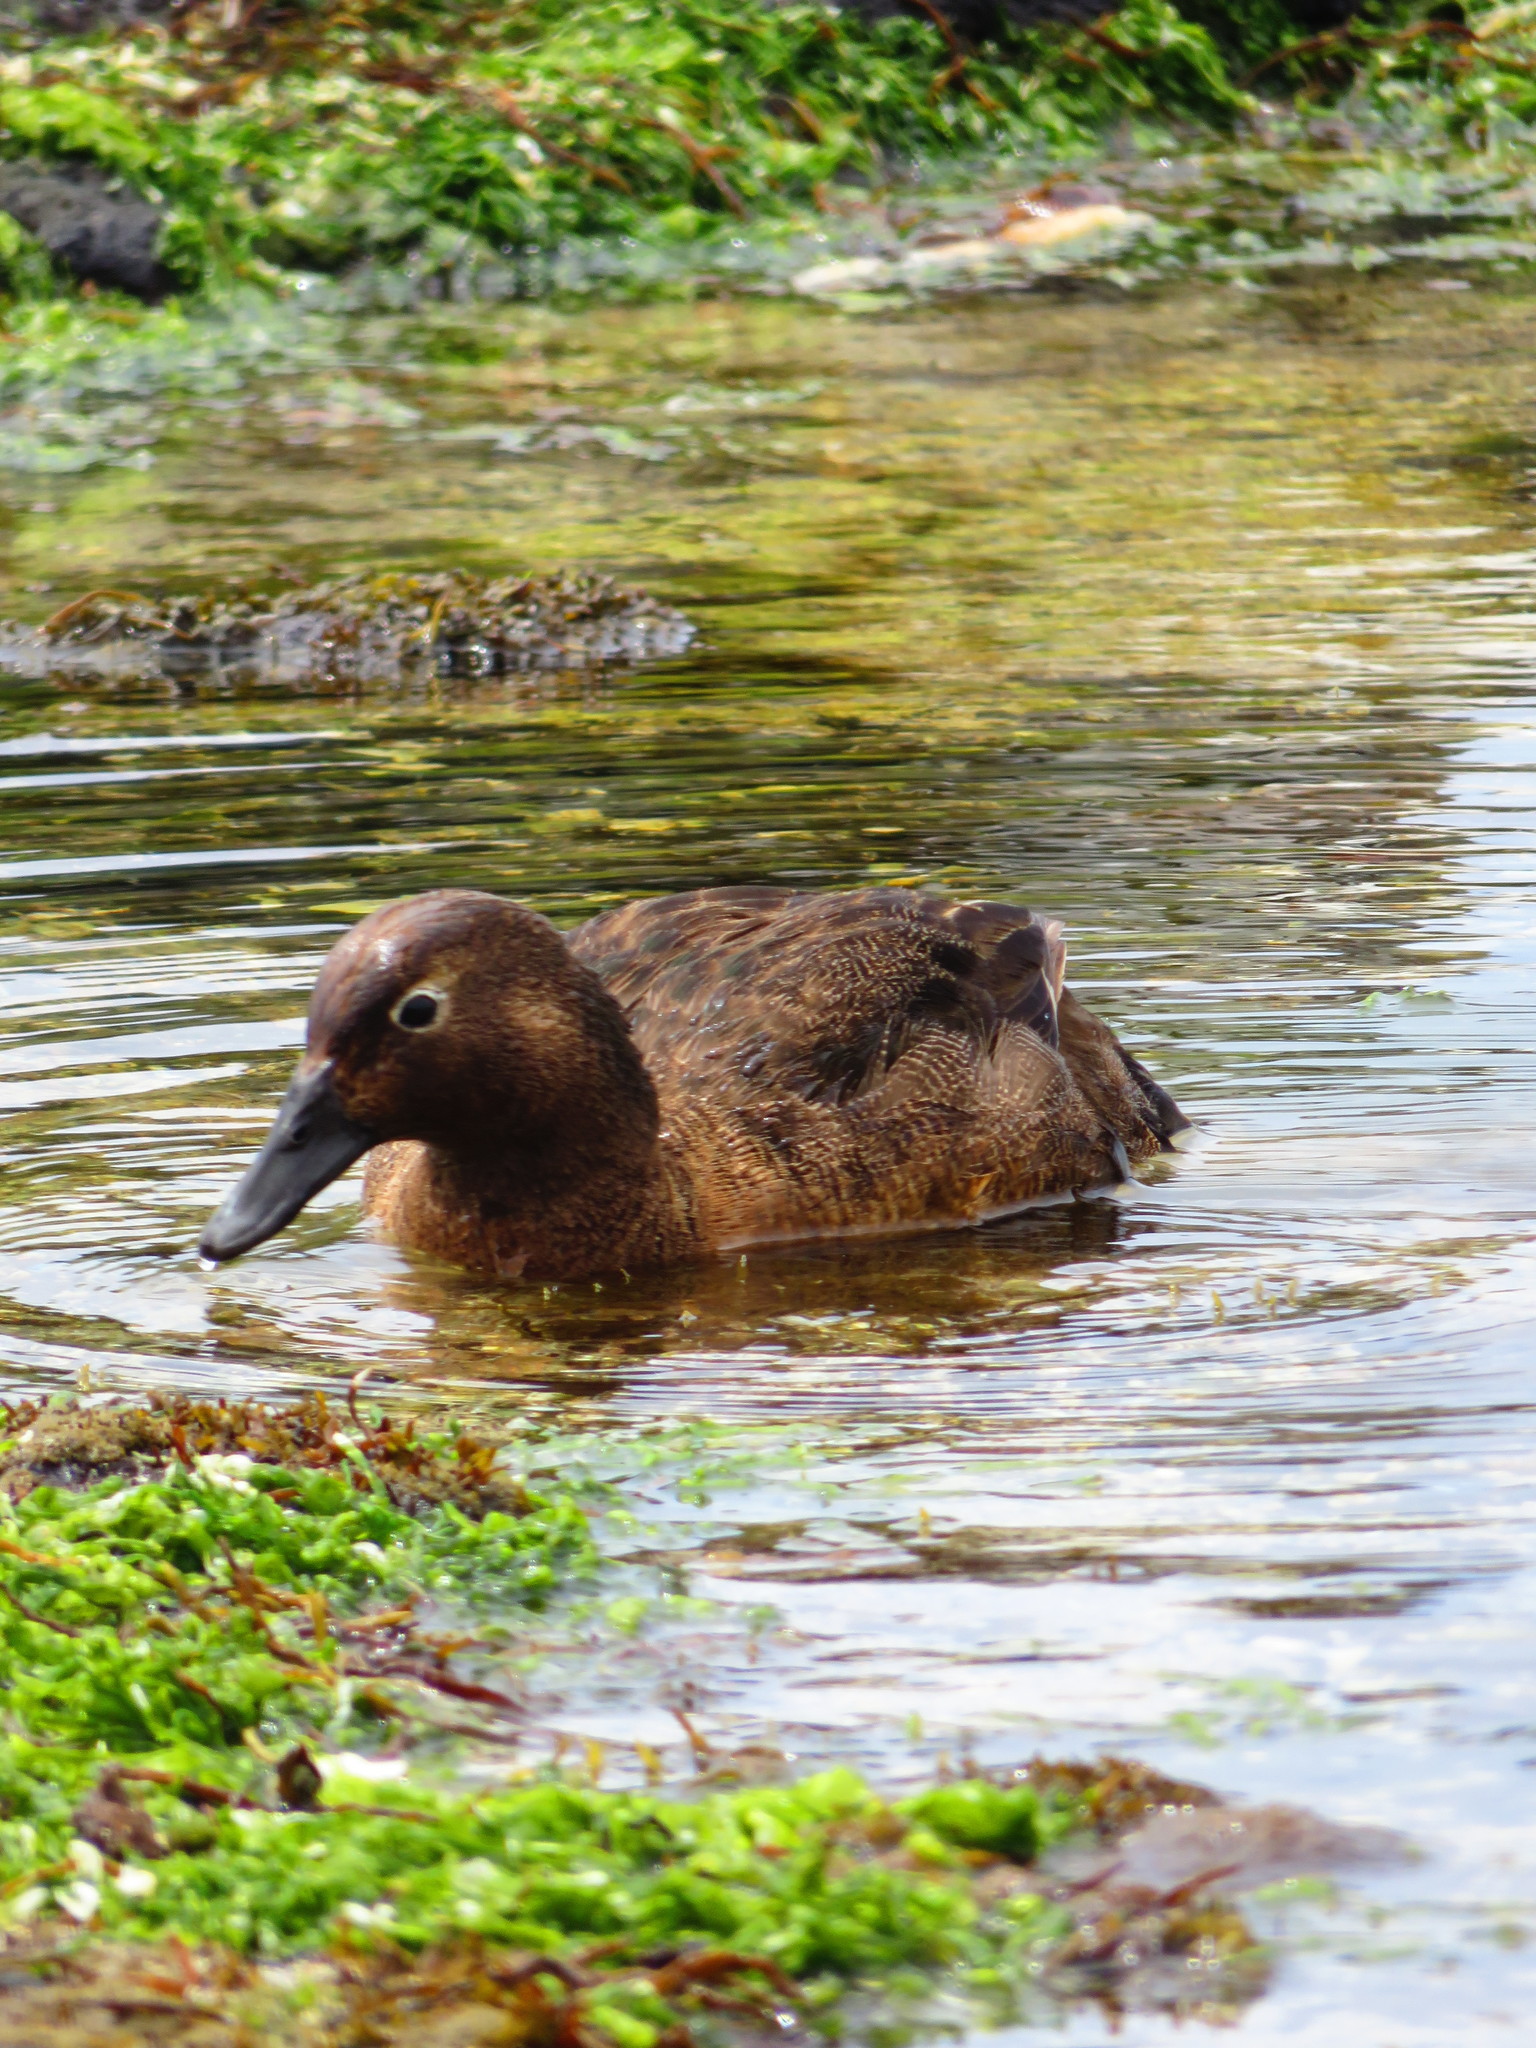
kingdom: Animalia
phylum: Chordata
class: Aves
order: Anseriformes
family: Anatidae
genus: Anas
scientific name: Anas aucklandica
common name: Auckland teal
